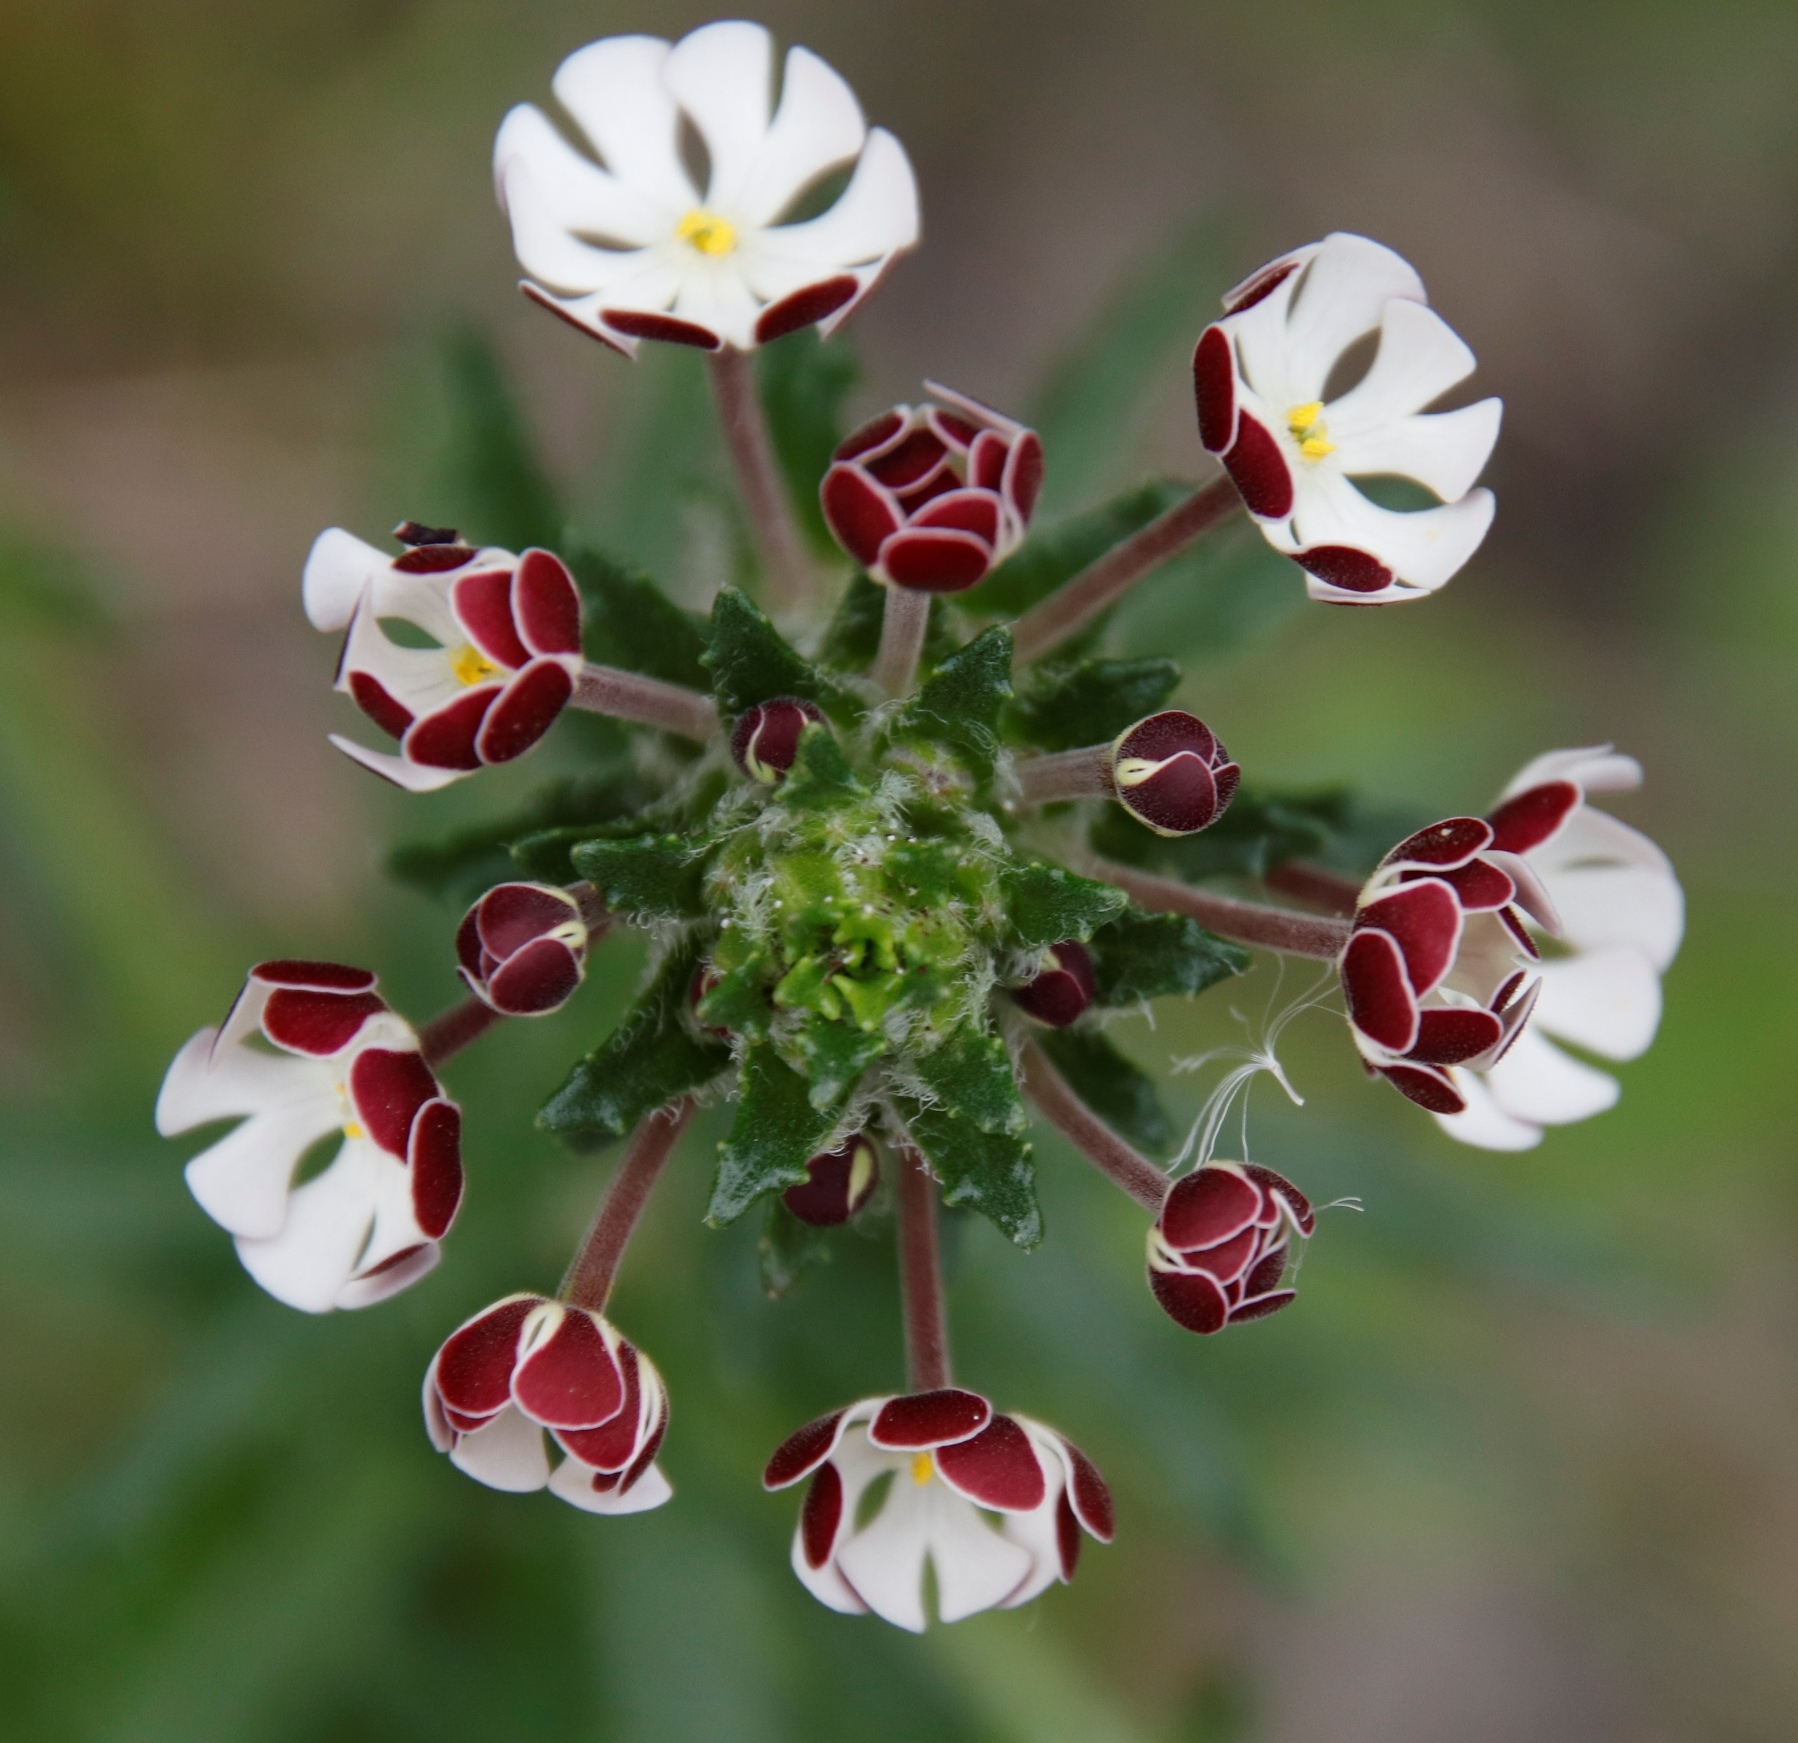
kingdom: Plantae
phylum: Tracheophyta
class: Magnoliopsida
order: Lamiales
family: Scrophulariaceae
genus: Zaluzianskya
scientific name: Zaluzianskya capensis
